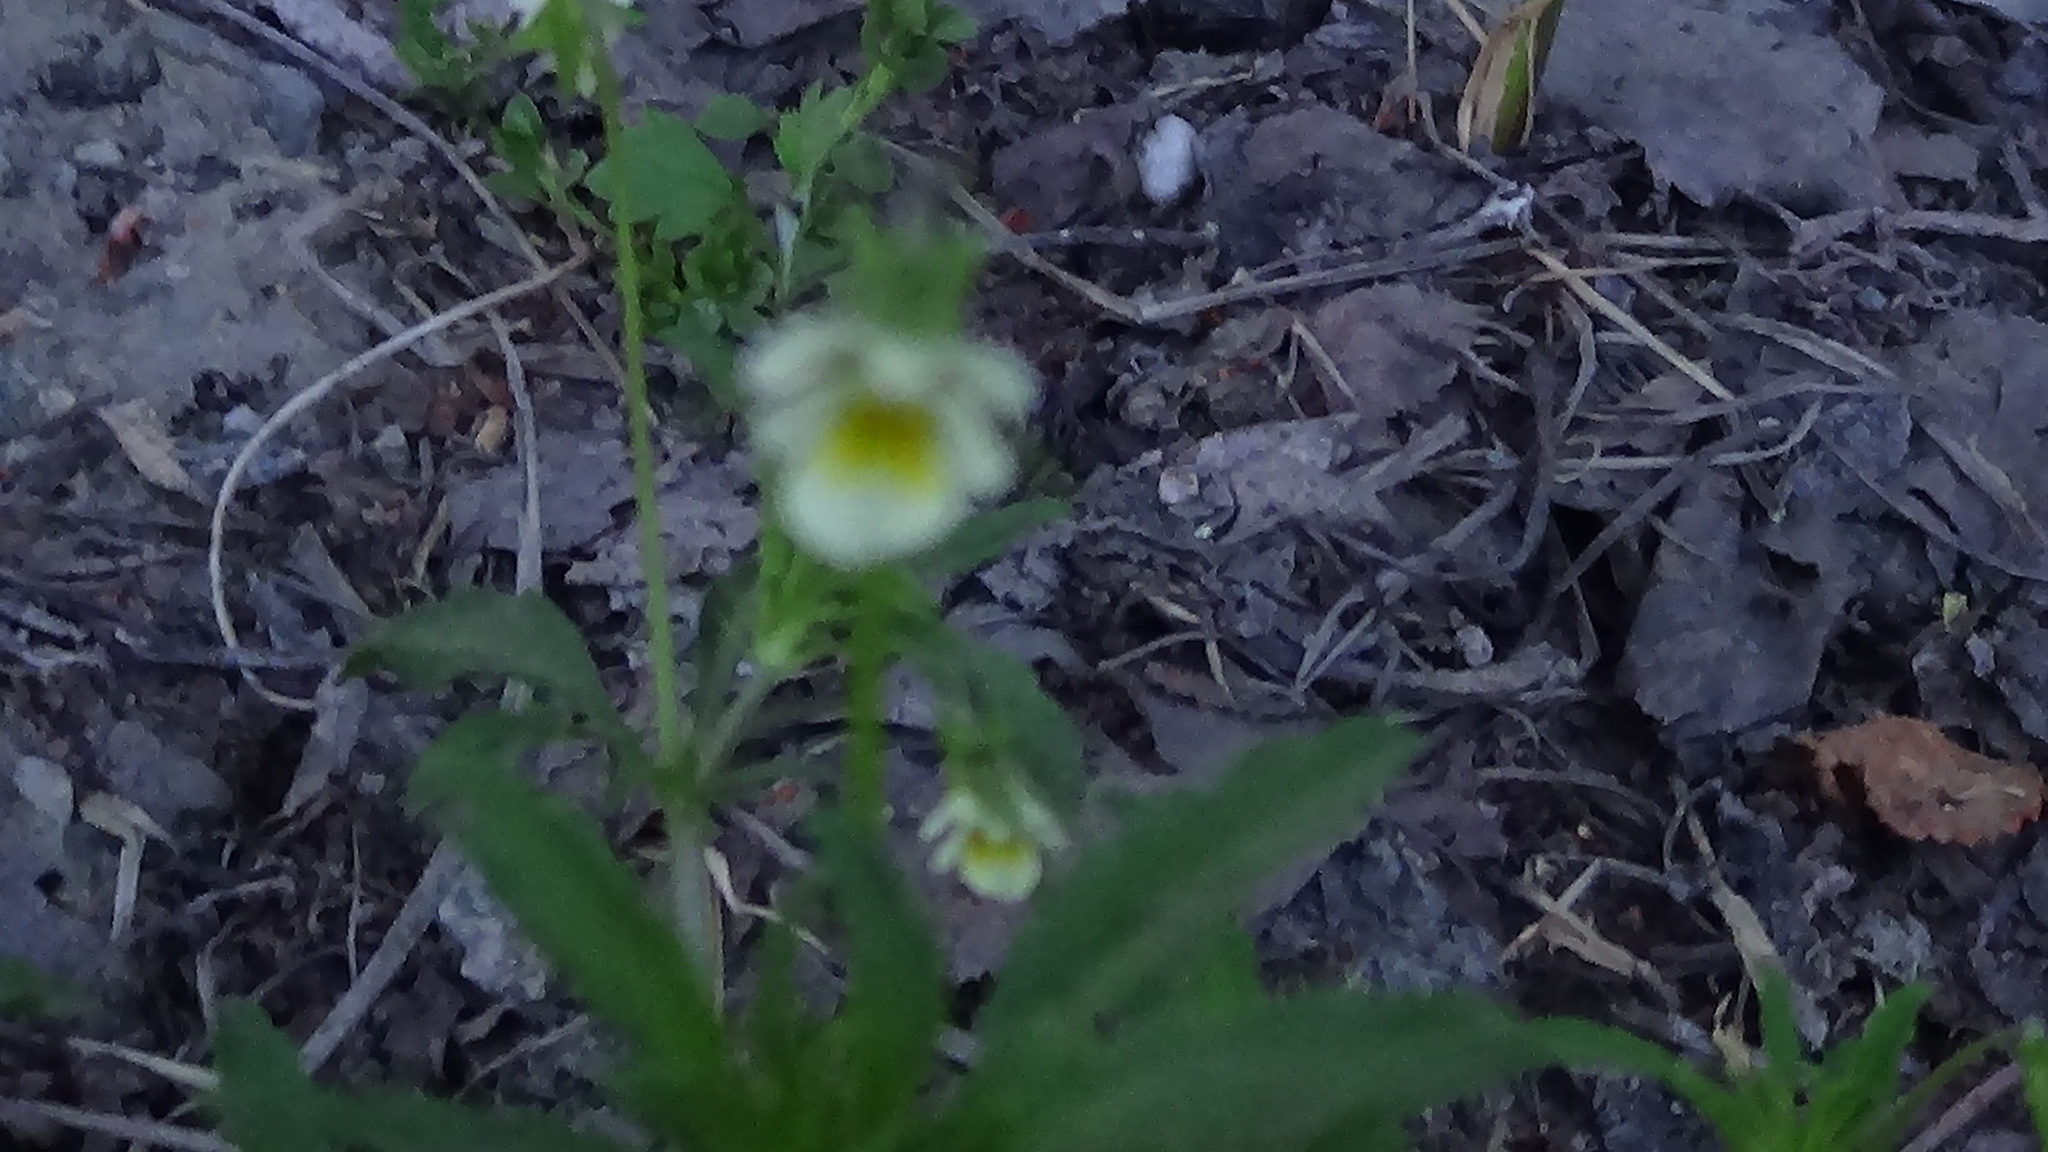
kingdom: Plantae
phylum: Tracheophyta
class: Magnoliopsida
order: Malpighiales
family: Violaceae
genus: Viola
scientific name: Viola arvensis
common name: Field pansy
